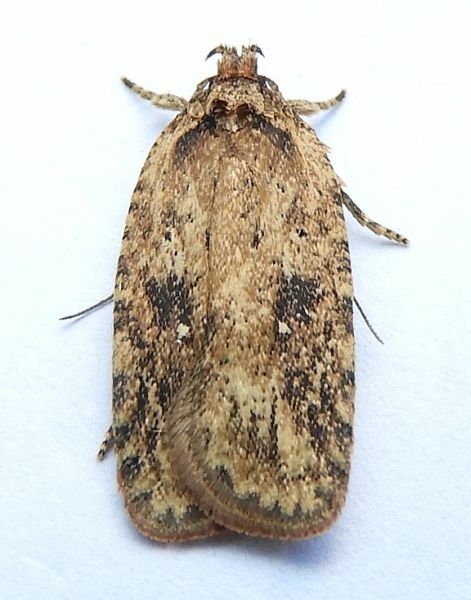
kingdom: Animalia
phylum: Arthropoda
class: Insecta
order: Lepidoptera
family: Depressariidae
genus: Agonopterix
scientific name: Agonopterix pulvipennella
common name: Goldenrod leafffolder
